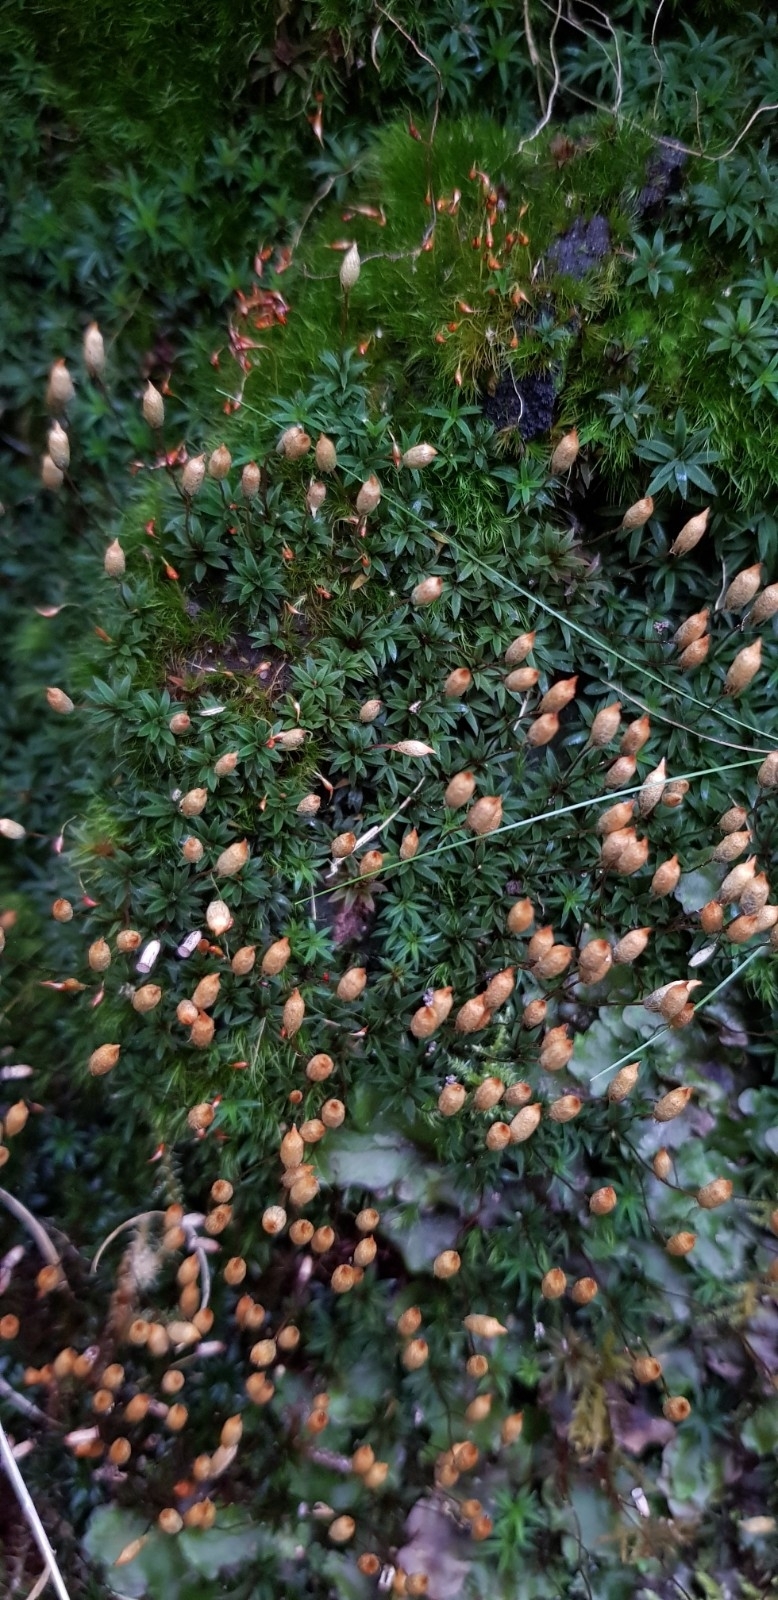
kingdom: Plantae
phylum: Bryophyta
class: Polytrichopsida
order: Polytrichales
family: Polytrichaceae
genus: Pogonatum
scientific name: Pogonatum aloides
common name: Aloe haircap
